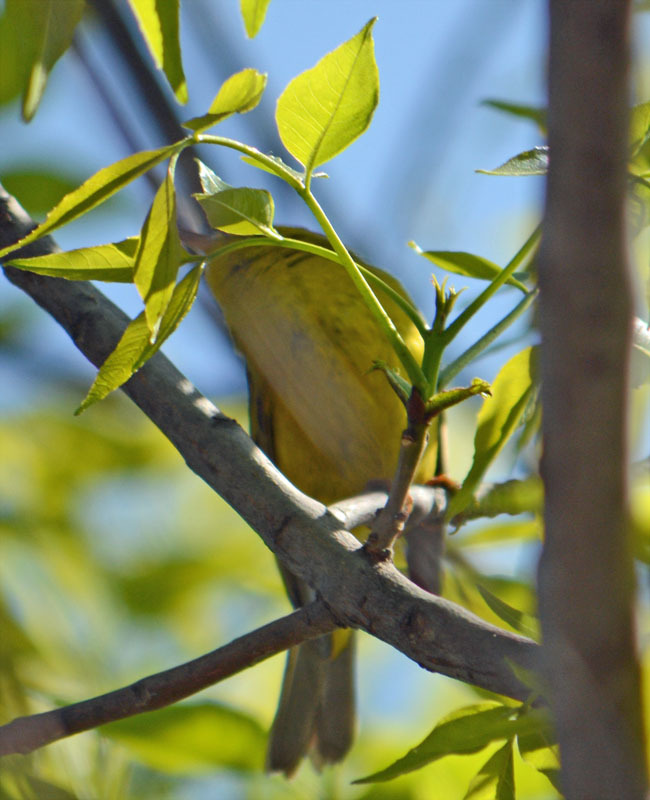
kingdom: Animalia
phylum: Chordata
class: Aves
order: Passeriformes
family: Parulidae
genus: Cardellina
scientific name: Cardellina pusilla
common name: Wilson's warbler
